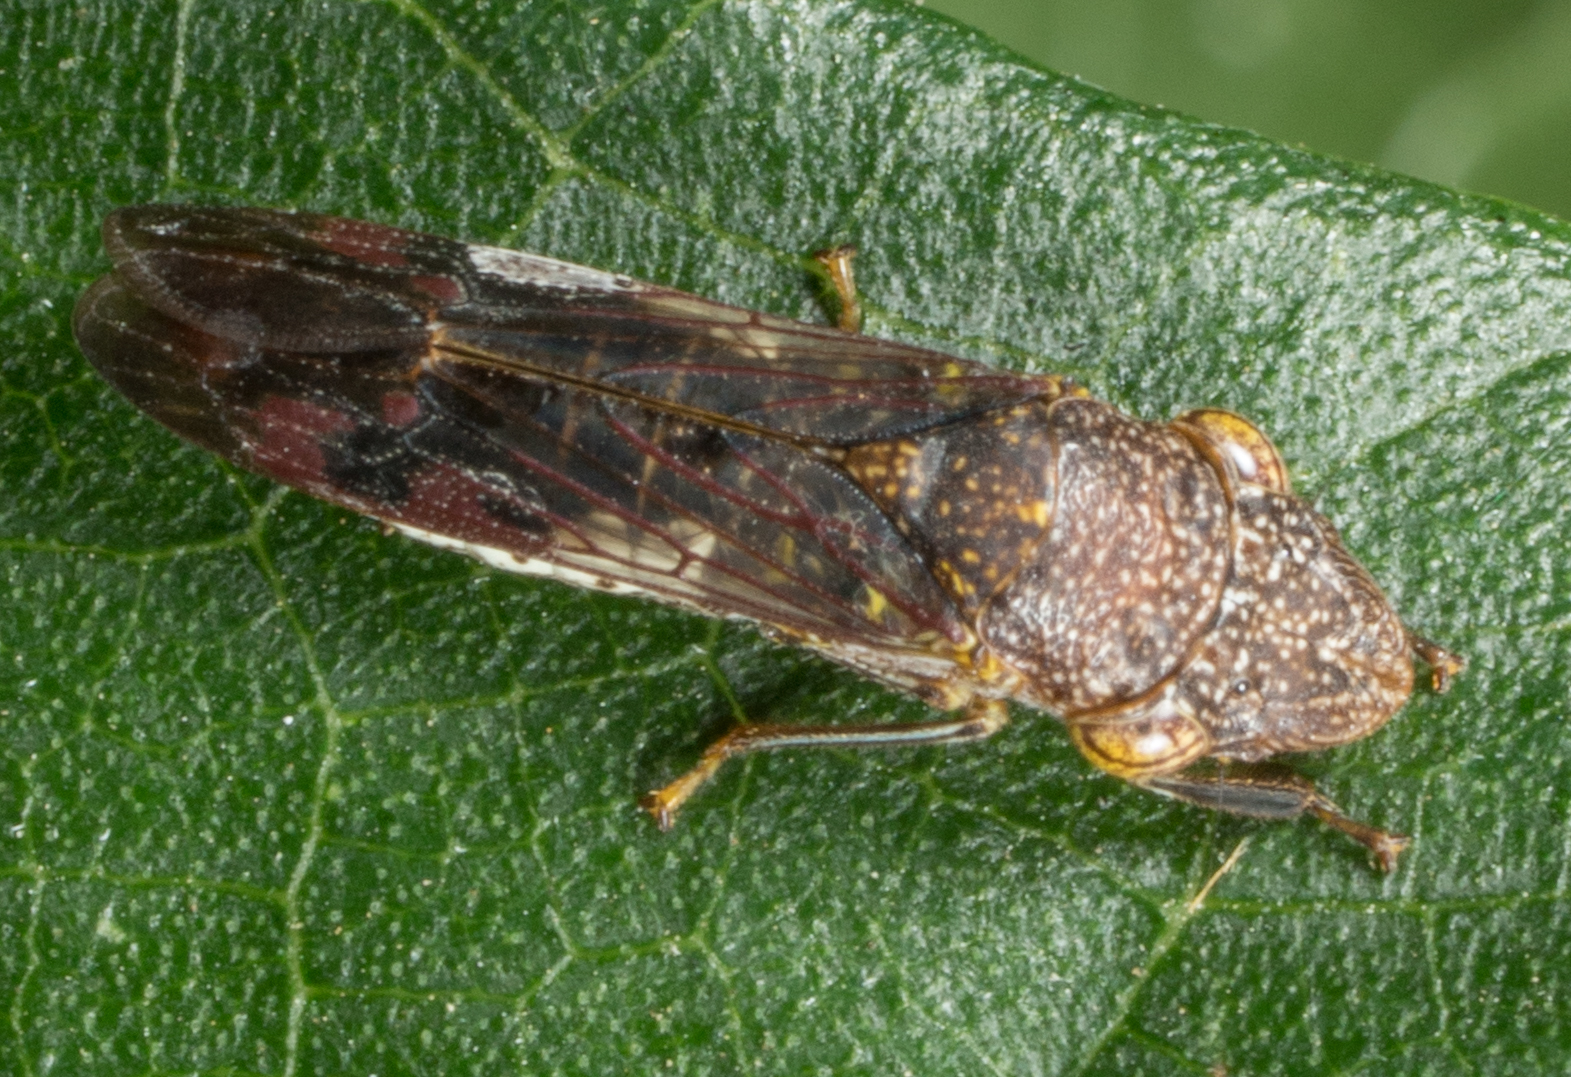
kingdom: Animalia
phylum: Arthropoda
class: Insecta
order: Hemiptera
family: Cicadellidae
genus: Homalodisca
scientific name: Homalodisca vitripennis
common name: Glassy-winged sharpshooter
